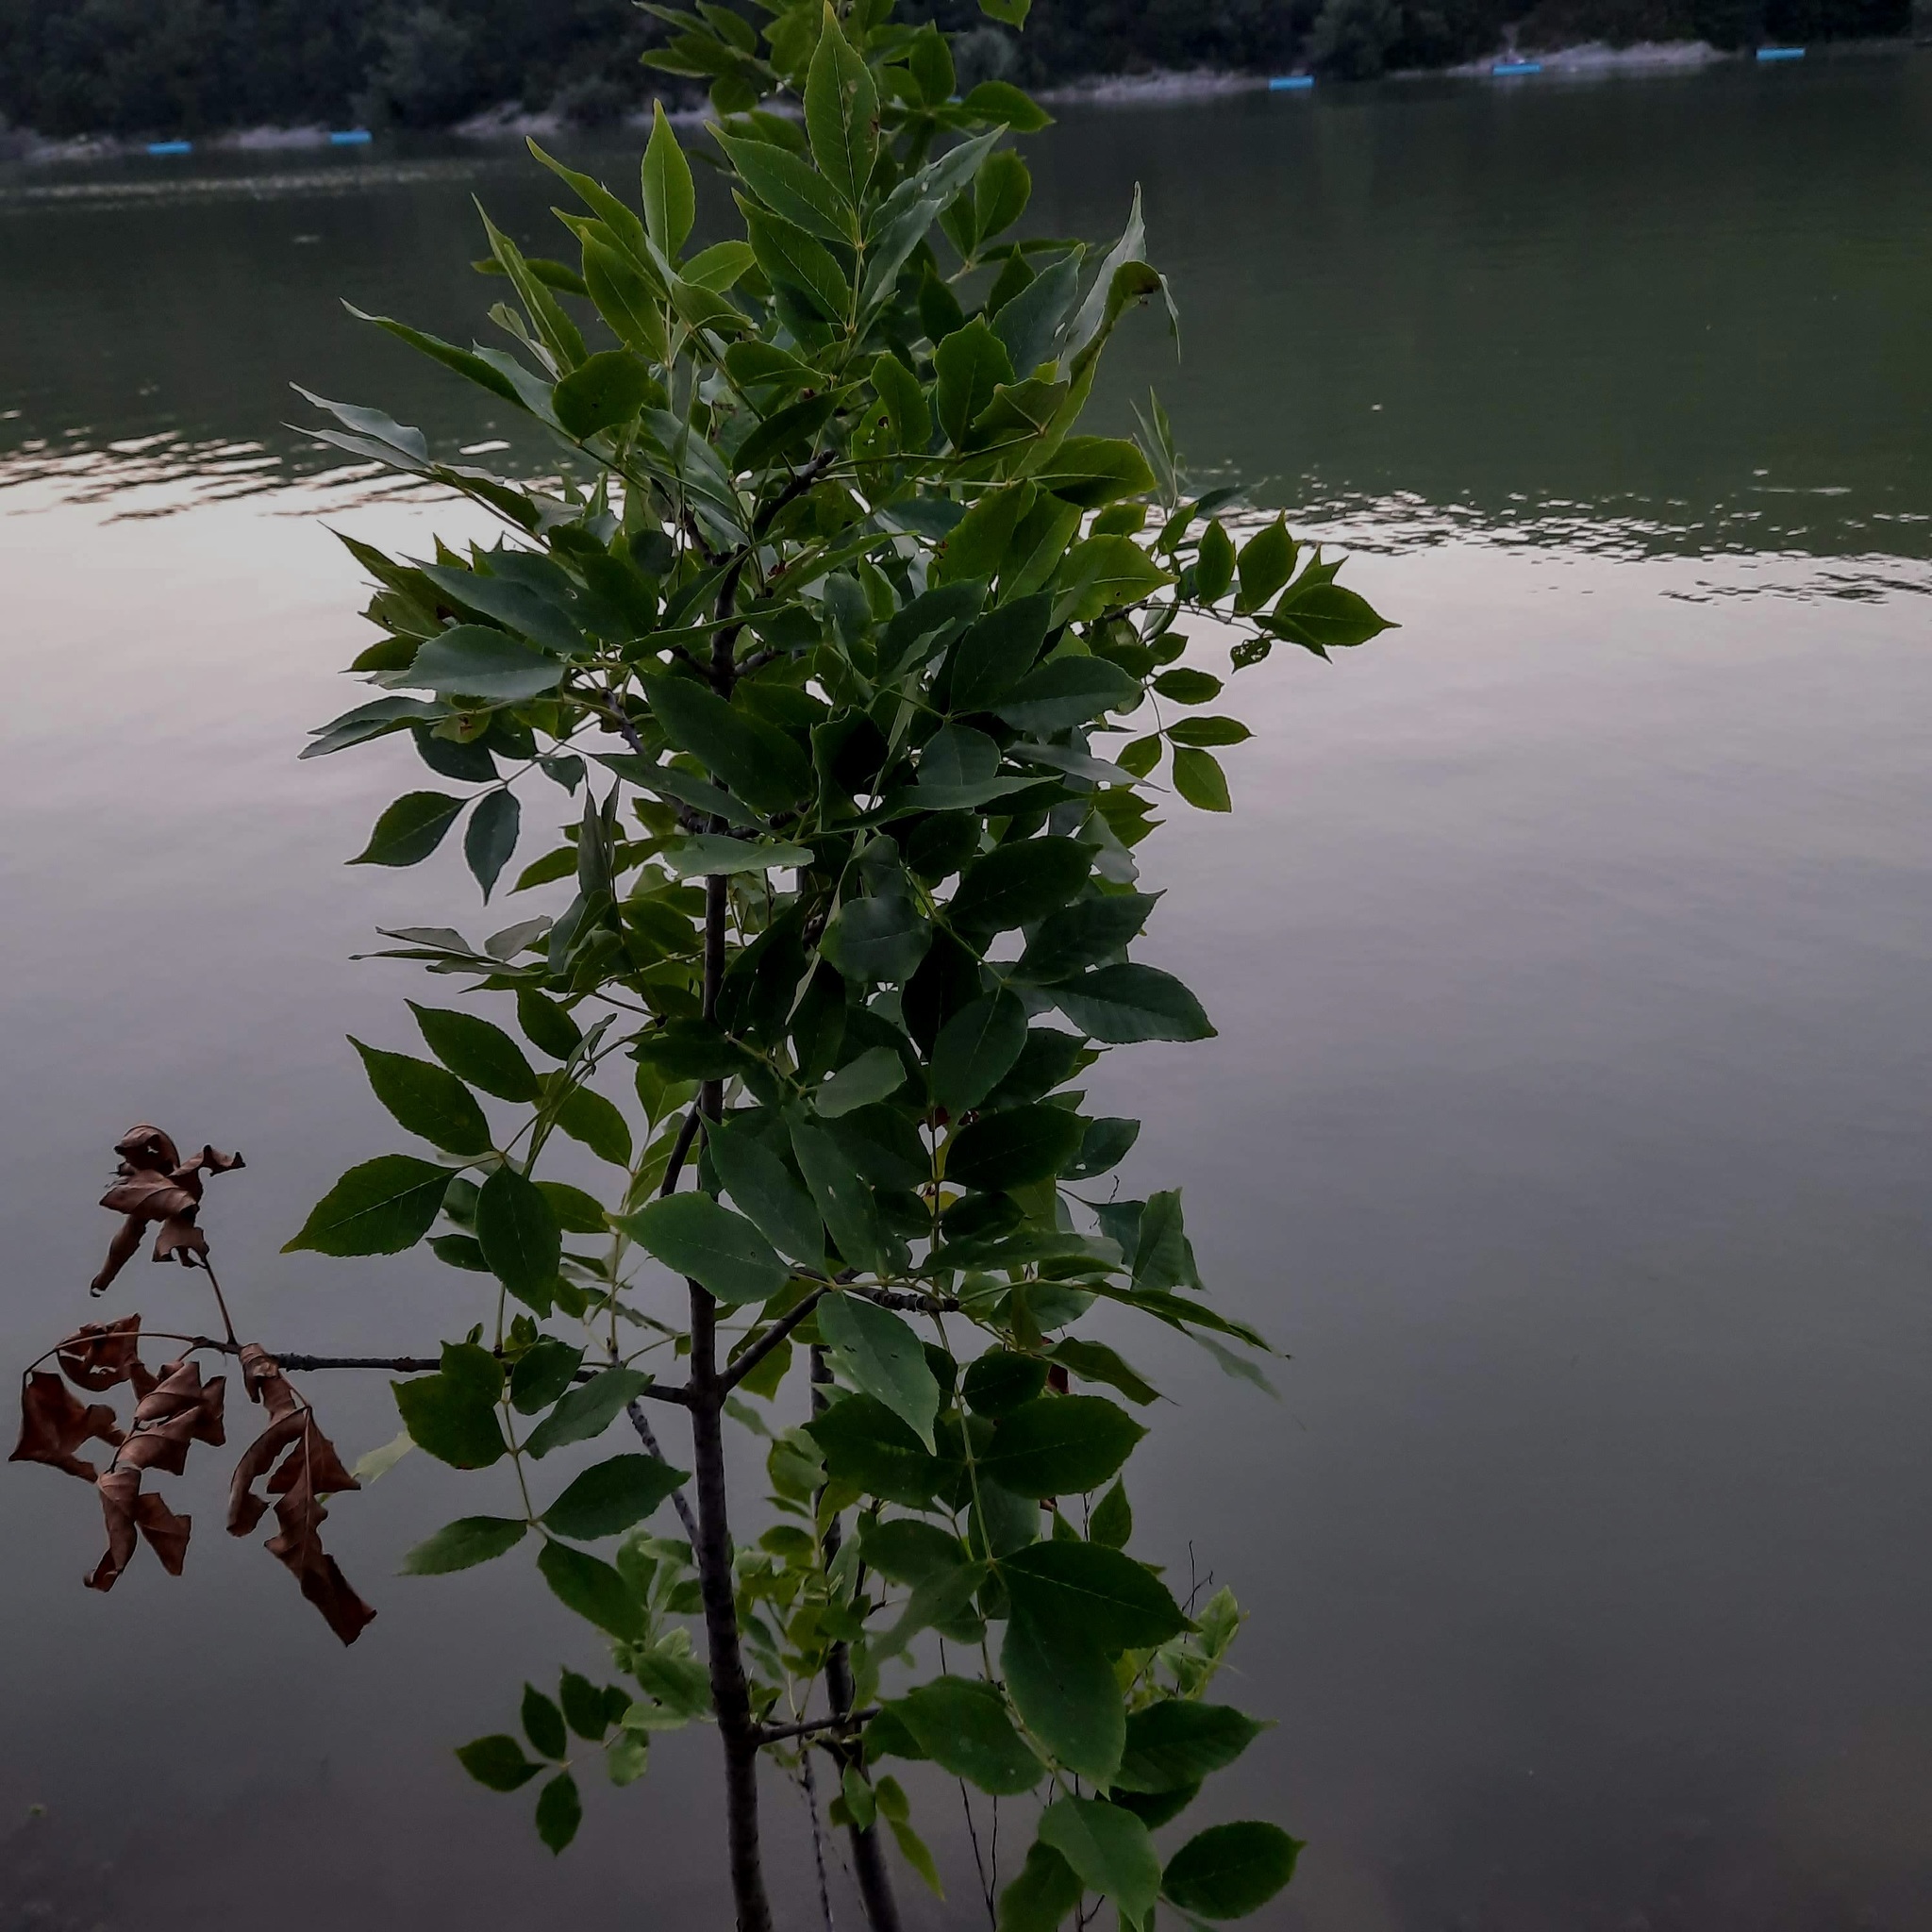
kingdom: Plantae
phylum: Tracheophyta
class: Magnoliopsida
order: Lamiales
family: Oleaceae
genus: Fraxinus
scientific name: Fraxinus pennsylvanica
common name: Green ash
